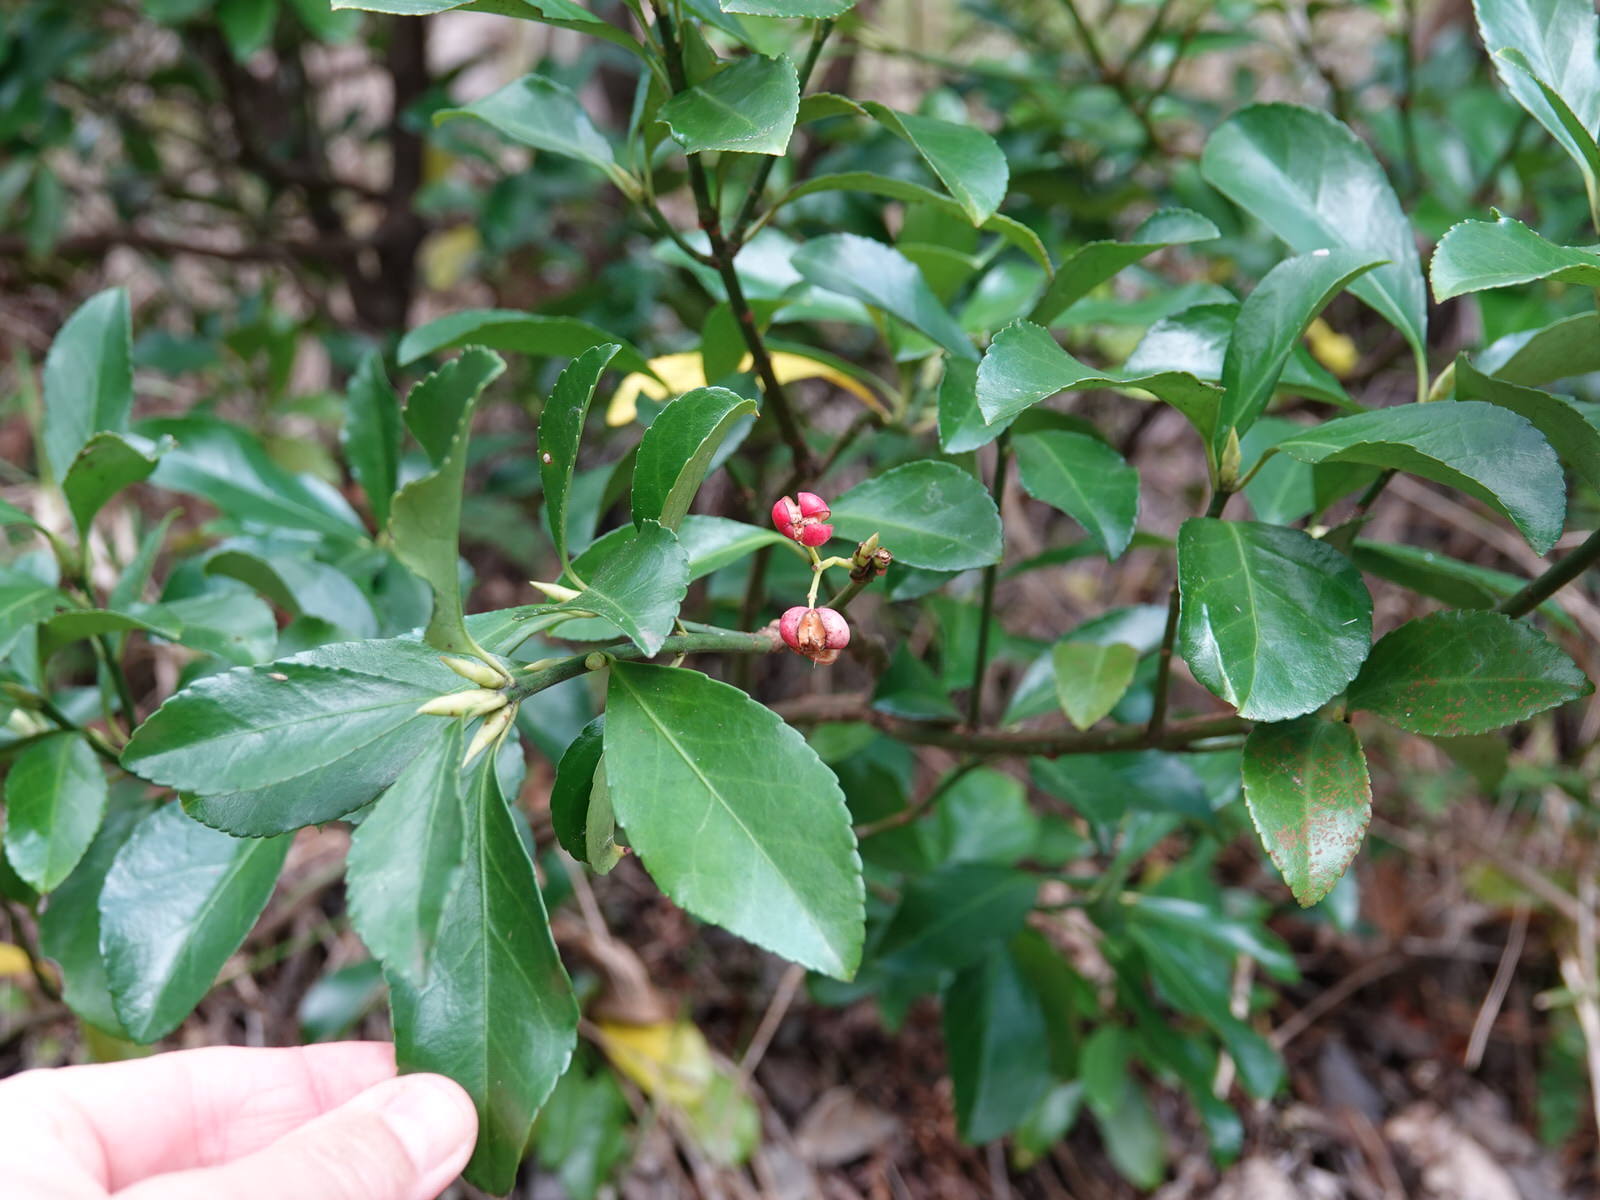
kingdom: Plantae
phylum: Tracheophyta
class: Magnoliopsida
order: Celastrales
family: Celastraceae
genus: Euonymus
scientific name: Euonymus japonicus
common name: Japanese spindletree
